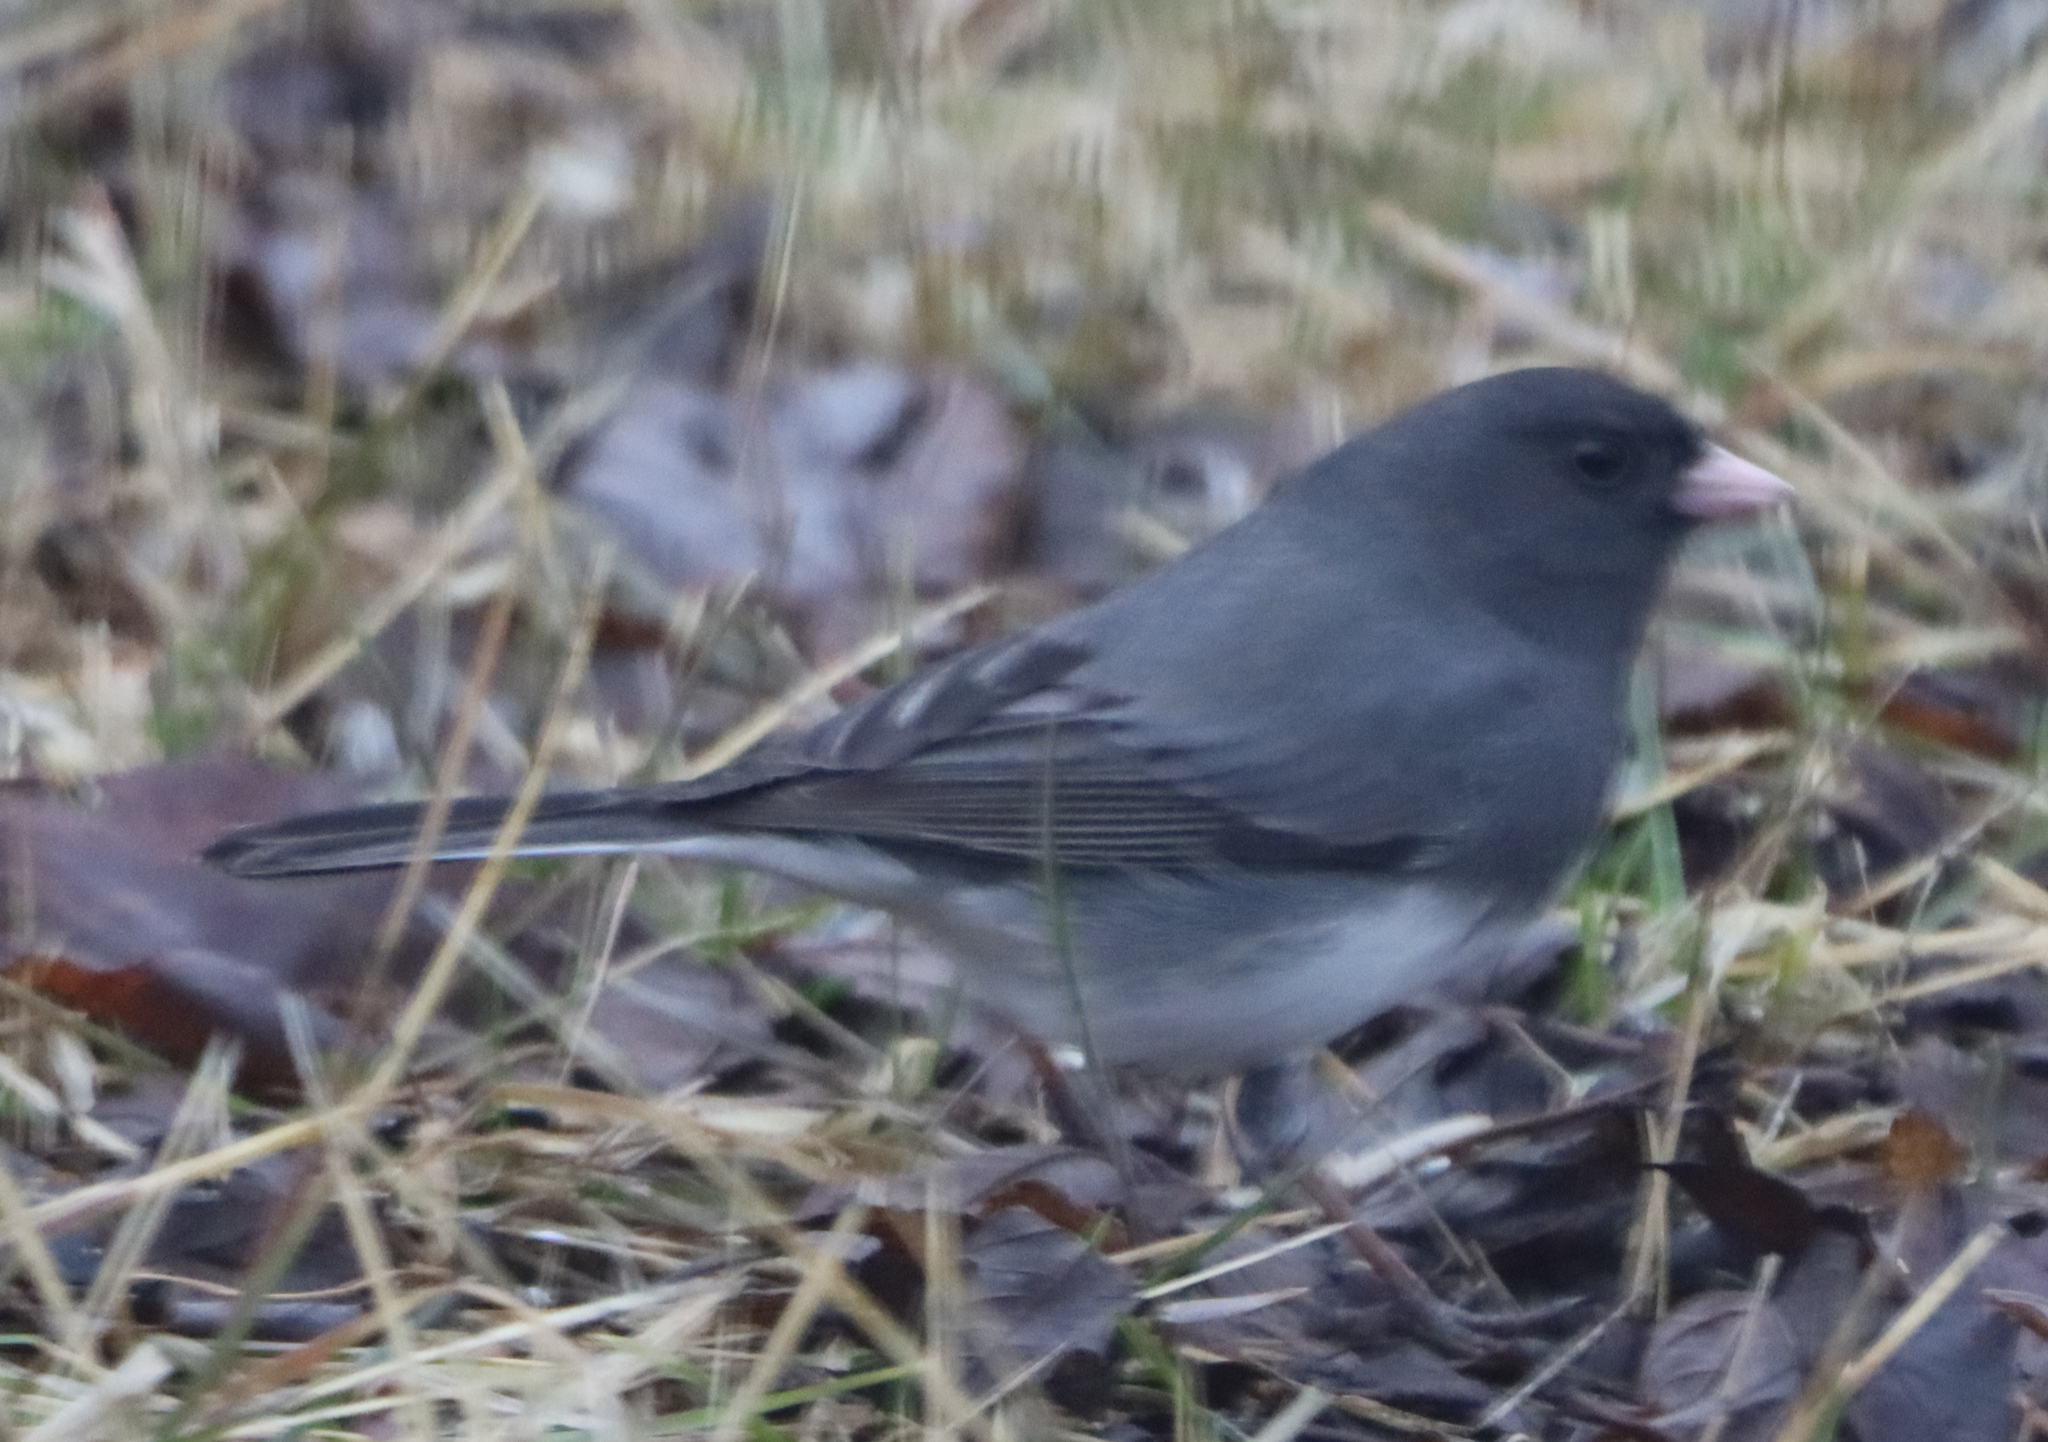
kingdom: Animalia
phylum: Chordata
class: Aves
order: Passeriformes
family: Passerellidae
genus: Junco
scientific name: Junco hyemalis
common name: Dark-eyed junco
